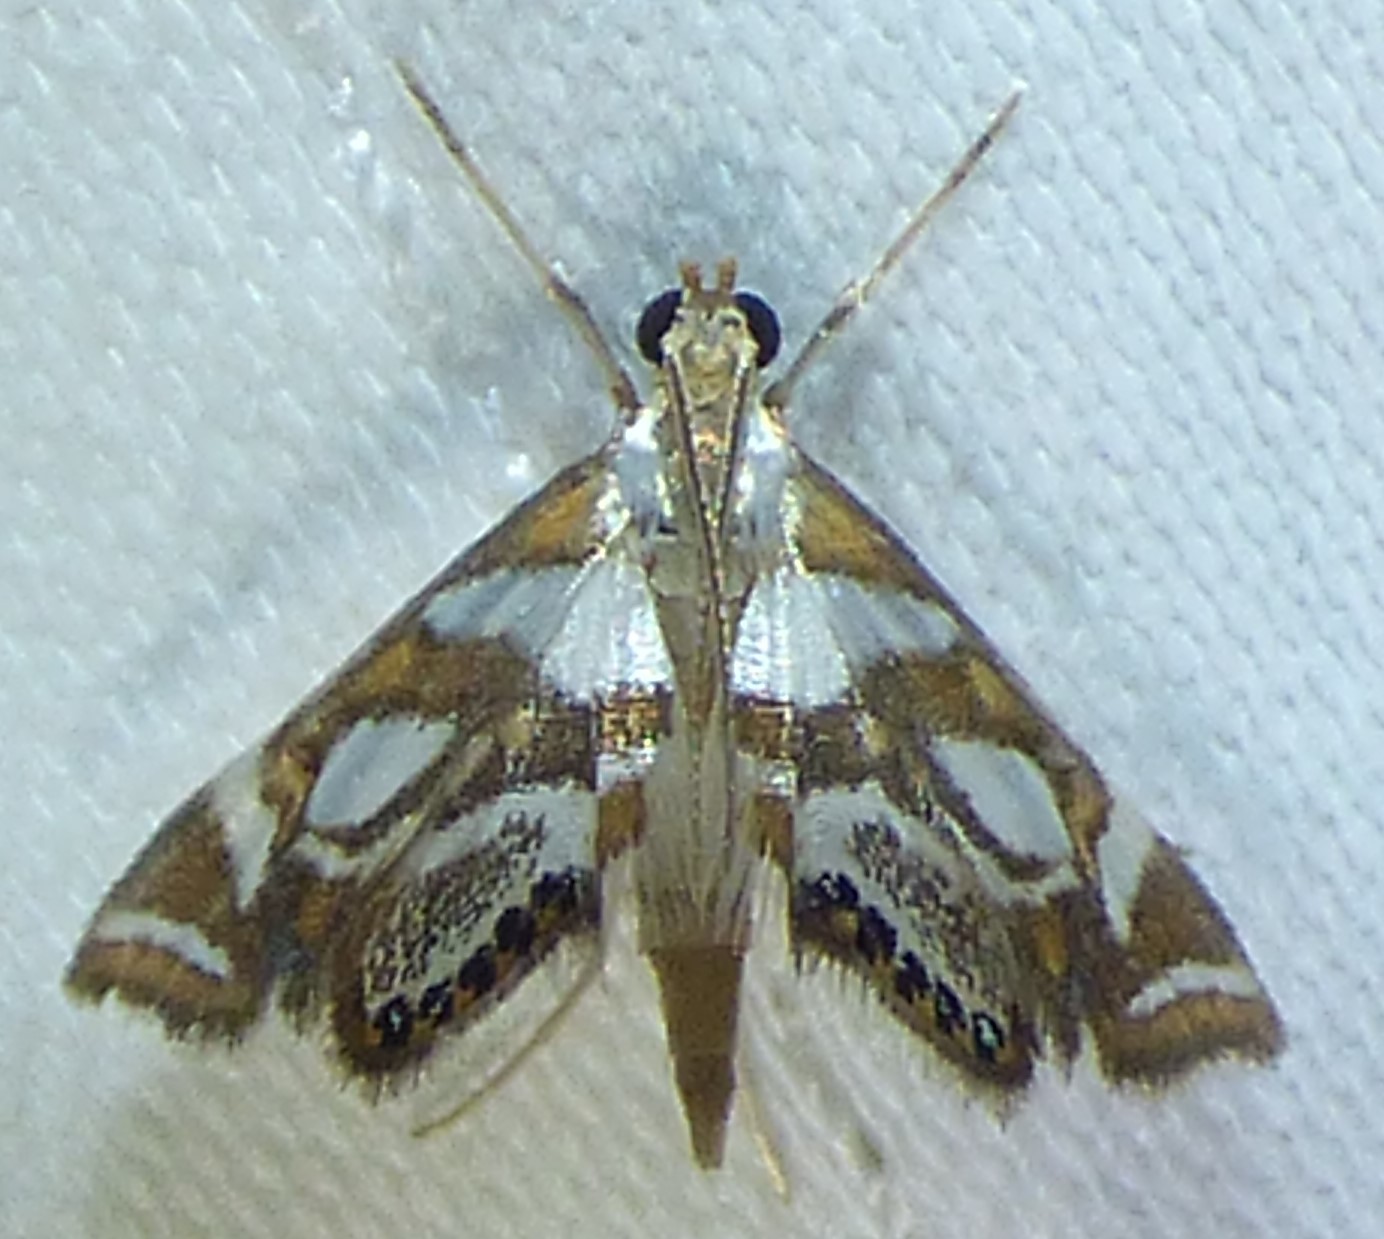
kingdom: Animalia
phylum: Arthropoda
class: Insecta
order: Lepidoptera
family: Crambidae
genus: Chrysendeton
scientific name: Chrysendeton medicinalis
